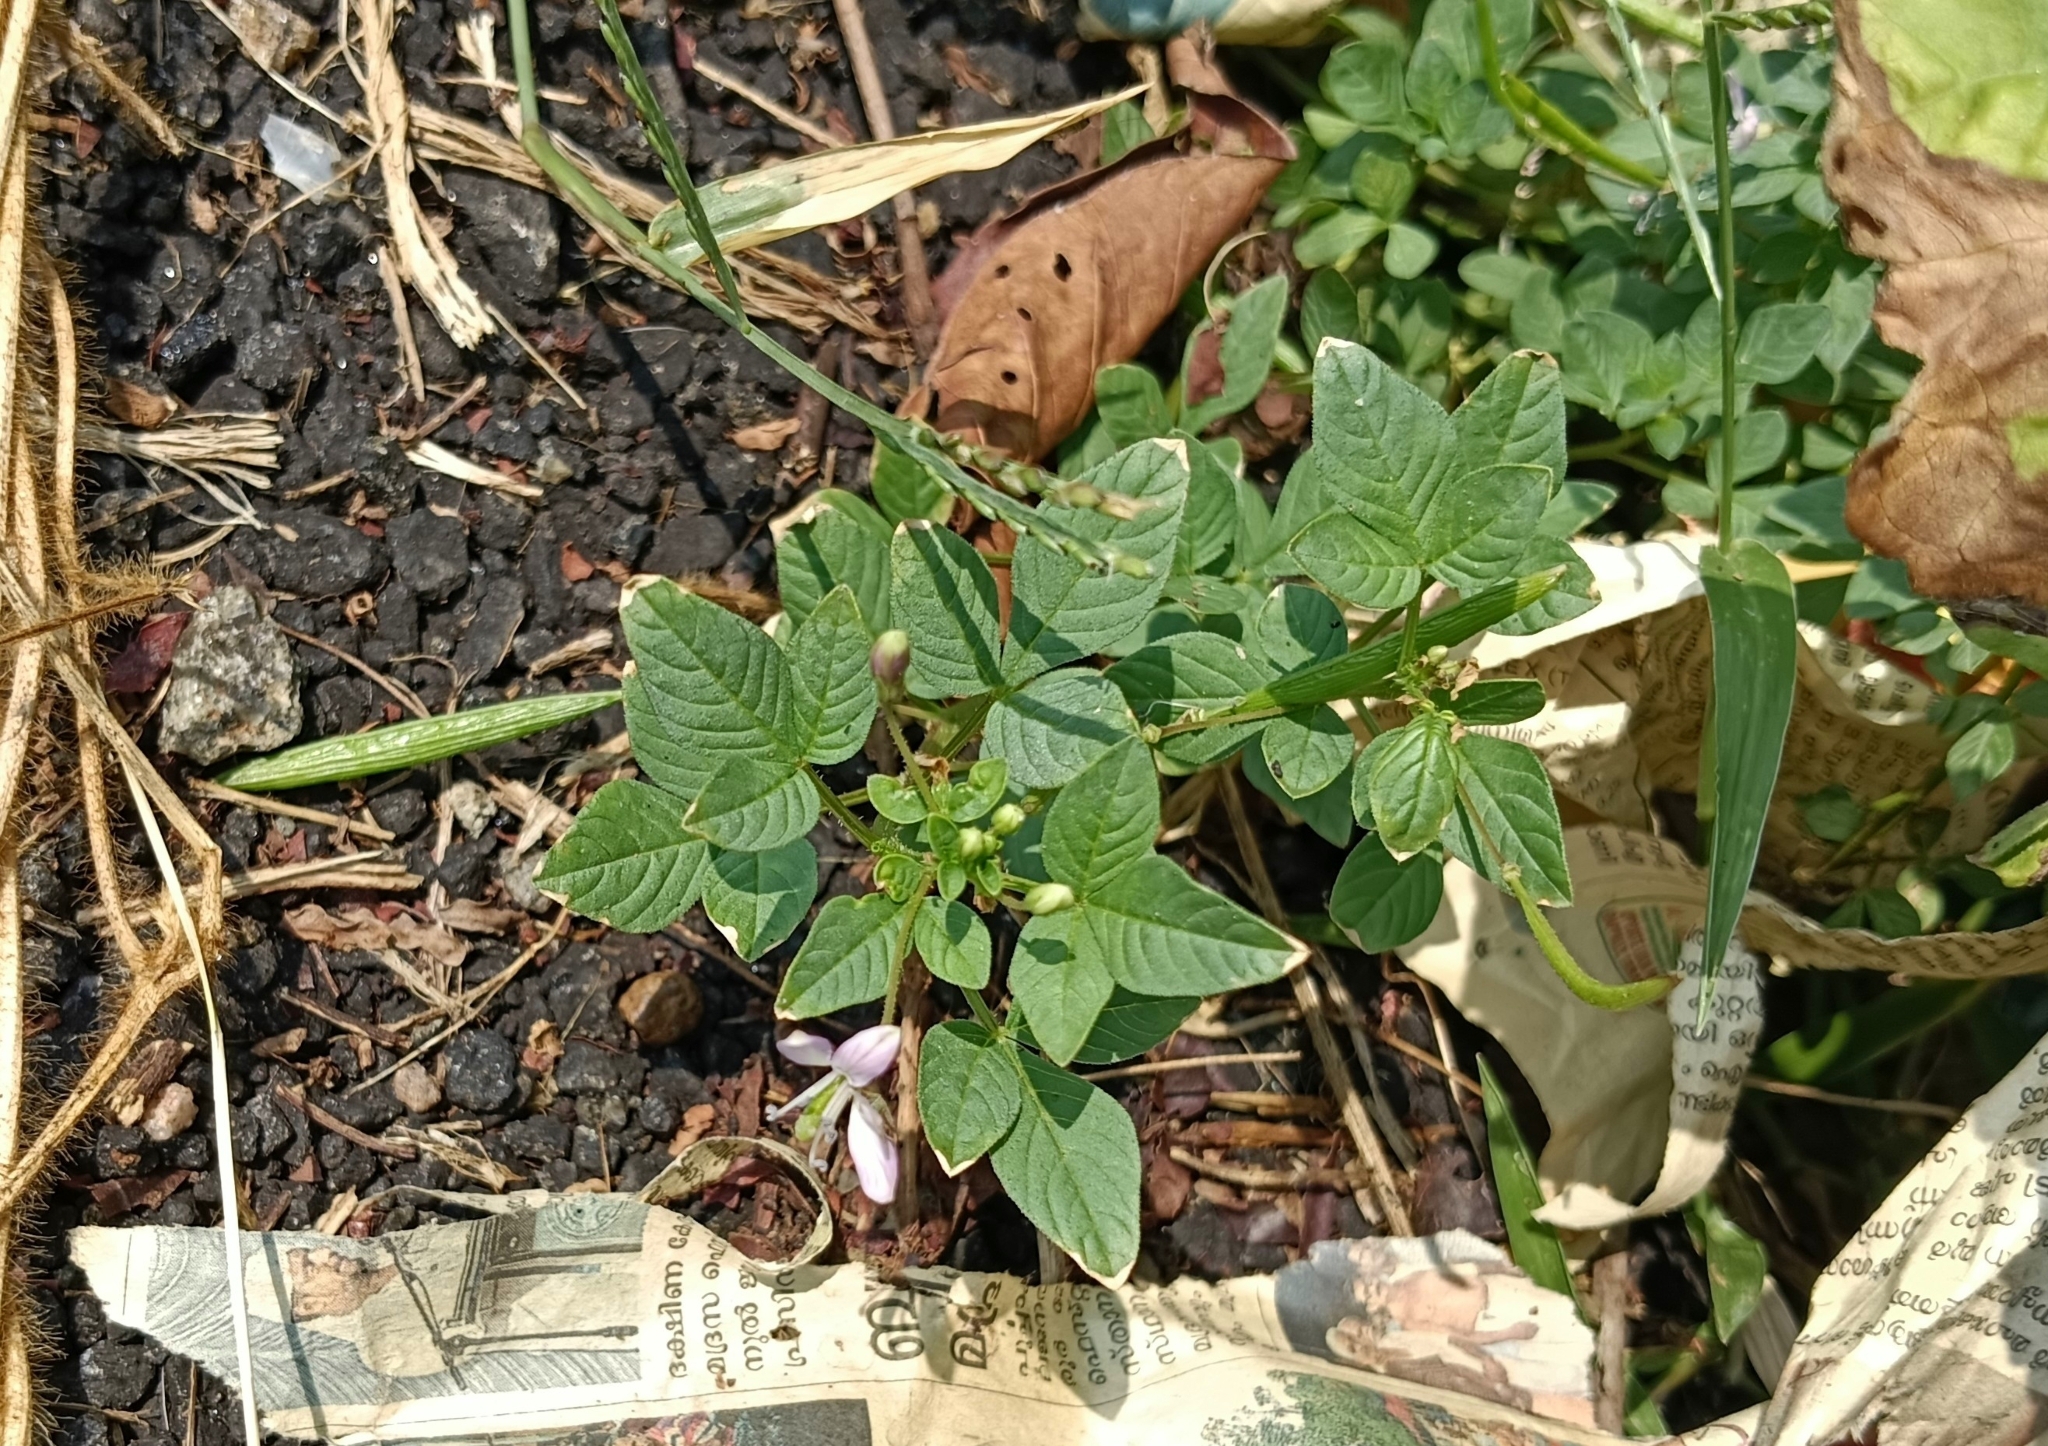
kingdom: Plantae
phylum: Tracheophyta
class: Magnoliopsida
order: Brassicales
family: Cleomaceae
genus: Sieruela
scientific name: Sieruela rutidosperma
